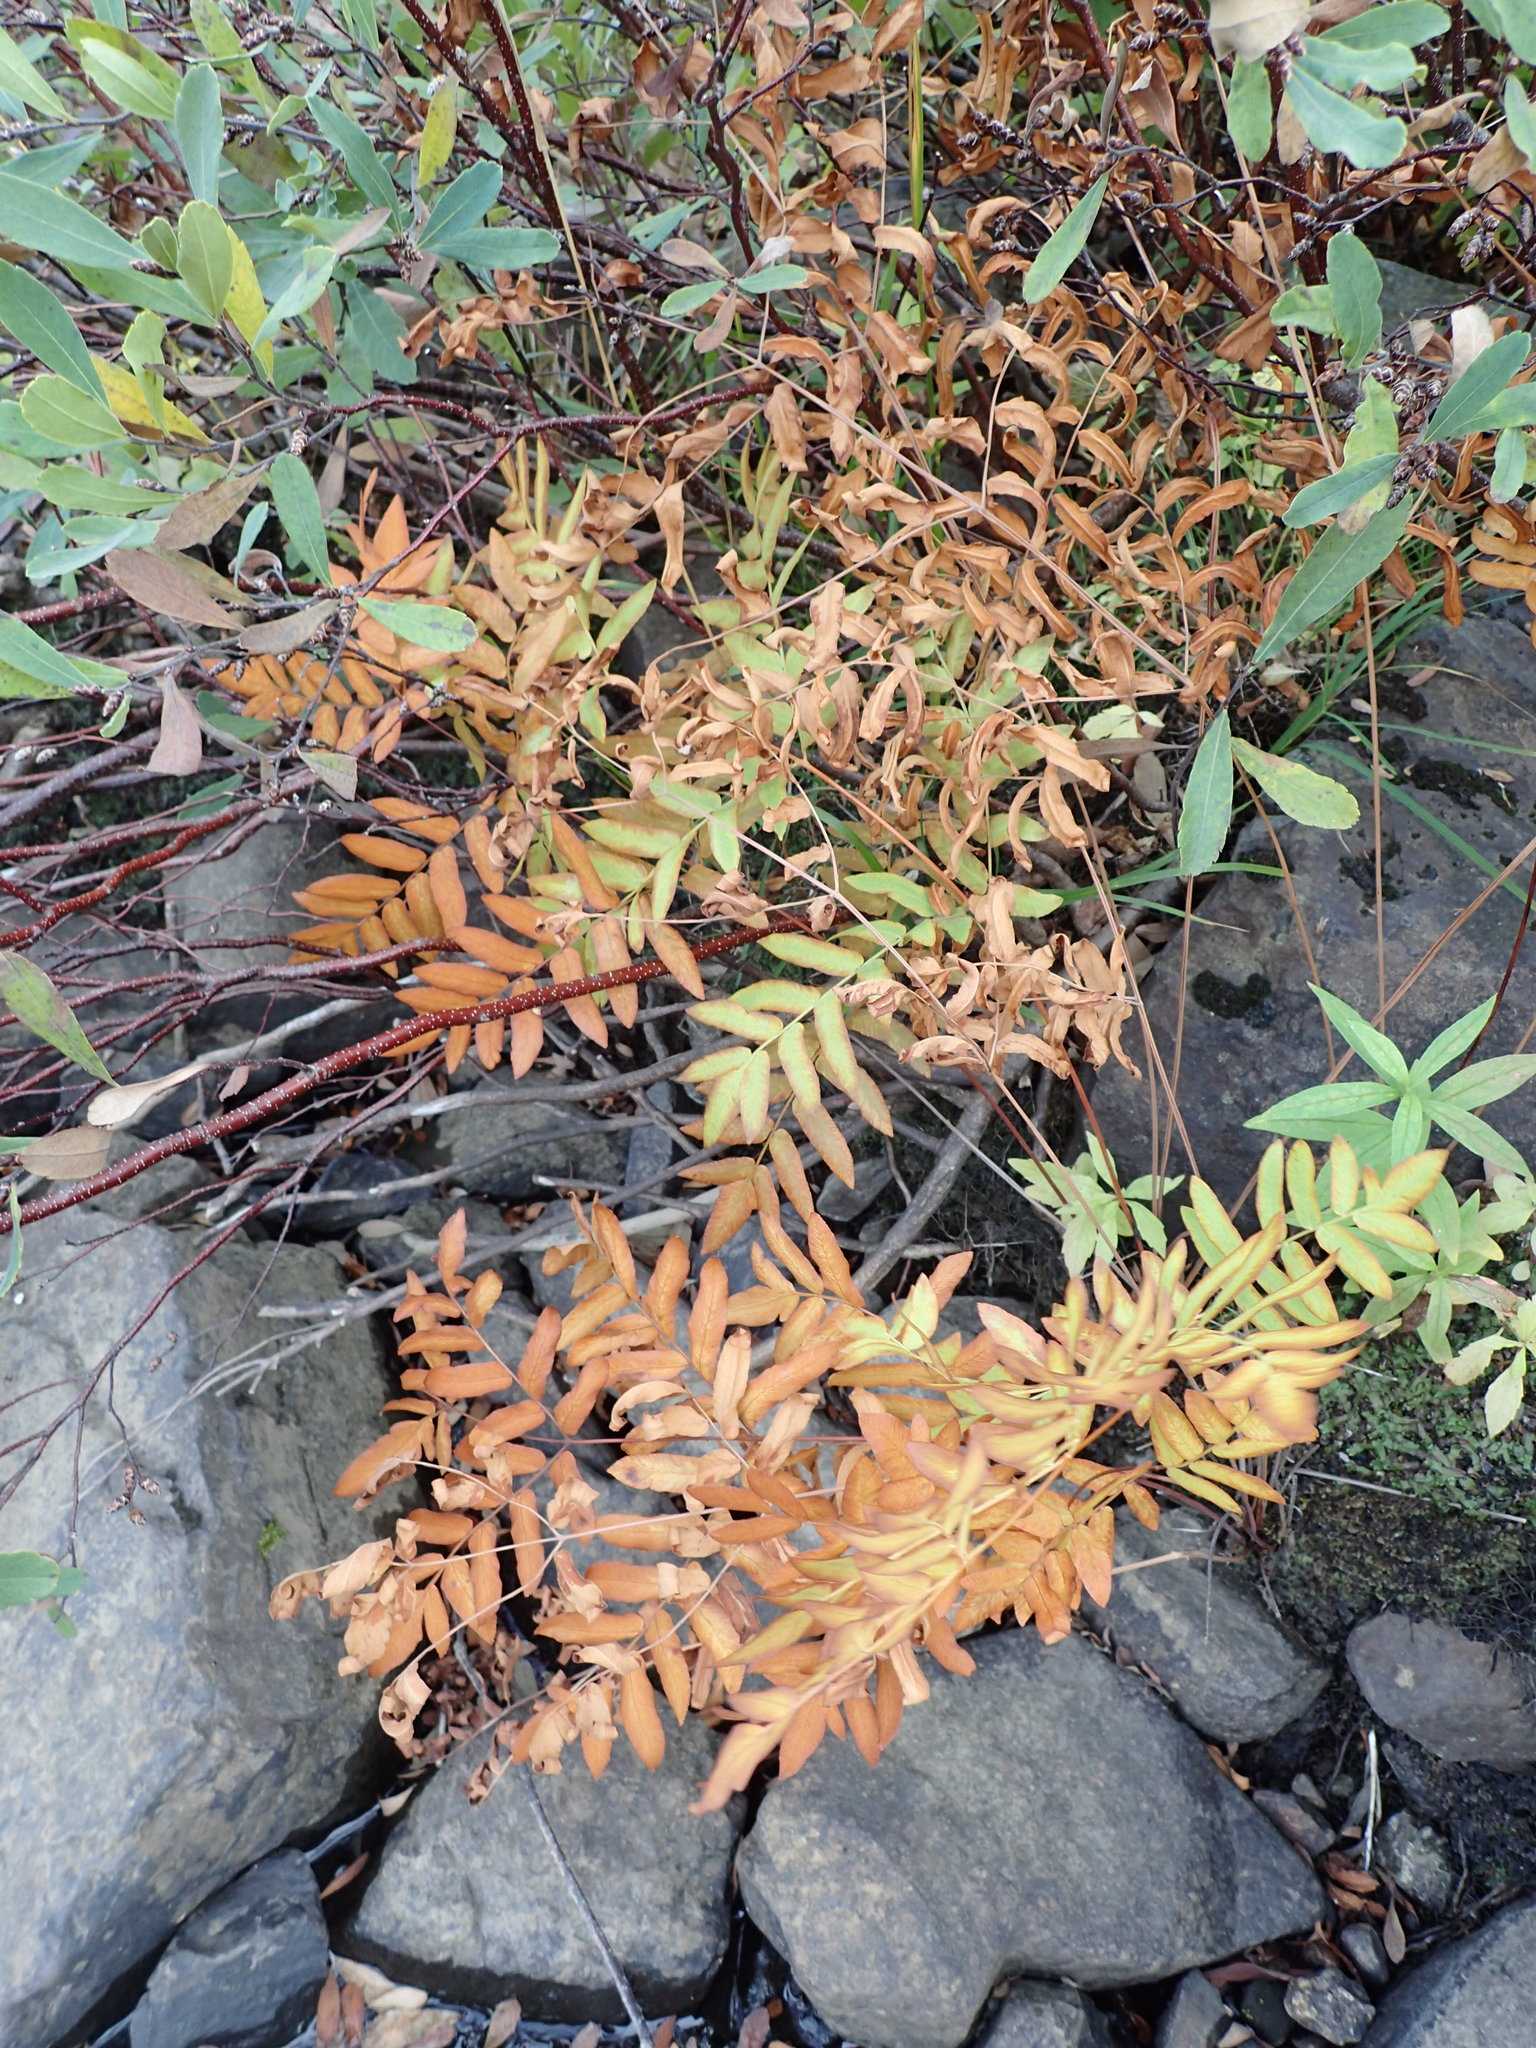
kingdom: Plantae
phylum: Tracheophyta
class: Polypodiopsida
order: Osmundales
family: Osmundaceae
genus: Osmunda
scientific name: Osmunda spectabilis
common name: American royal fern
